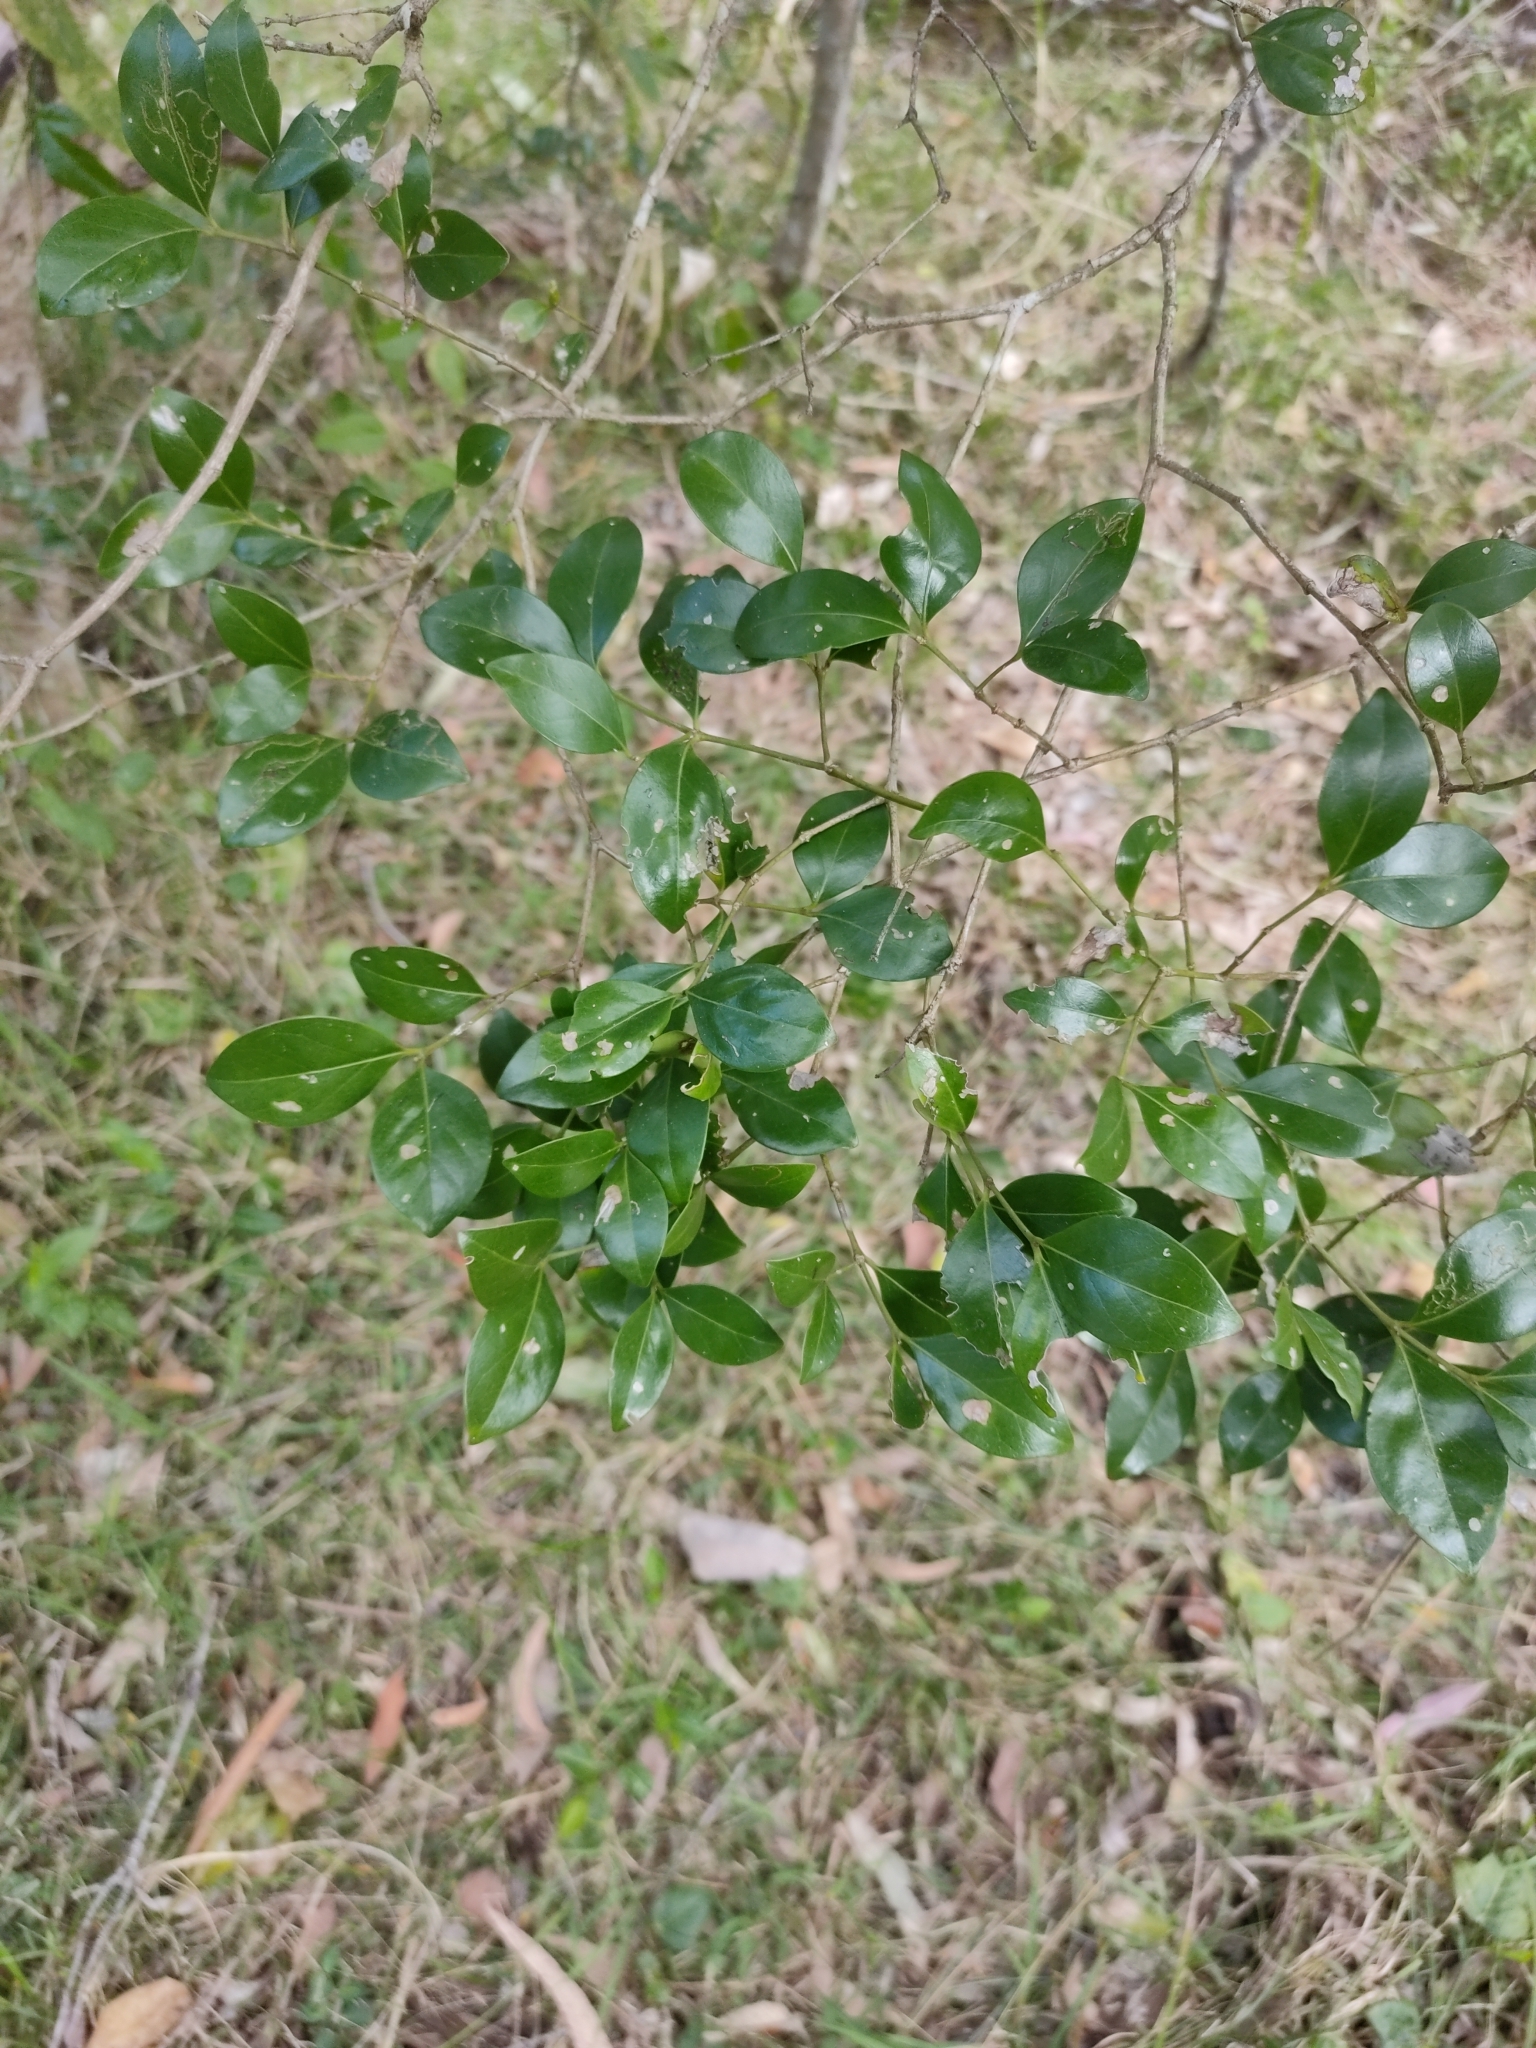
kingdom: Plantae
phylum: Tracheophyta
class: Magnoliopsida
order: Gentianales
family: Rubiaceae
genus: Psydrax
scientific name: Psydrax odoratus
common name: Alahe'e
